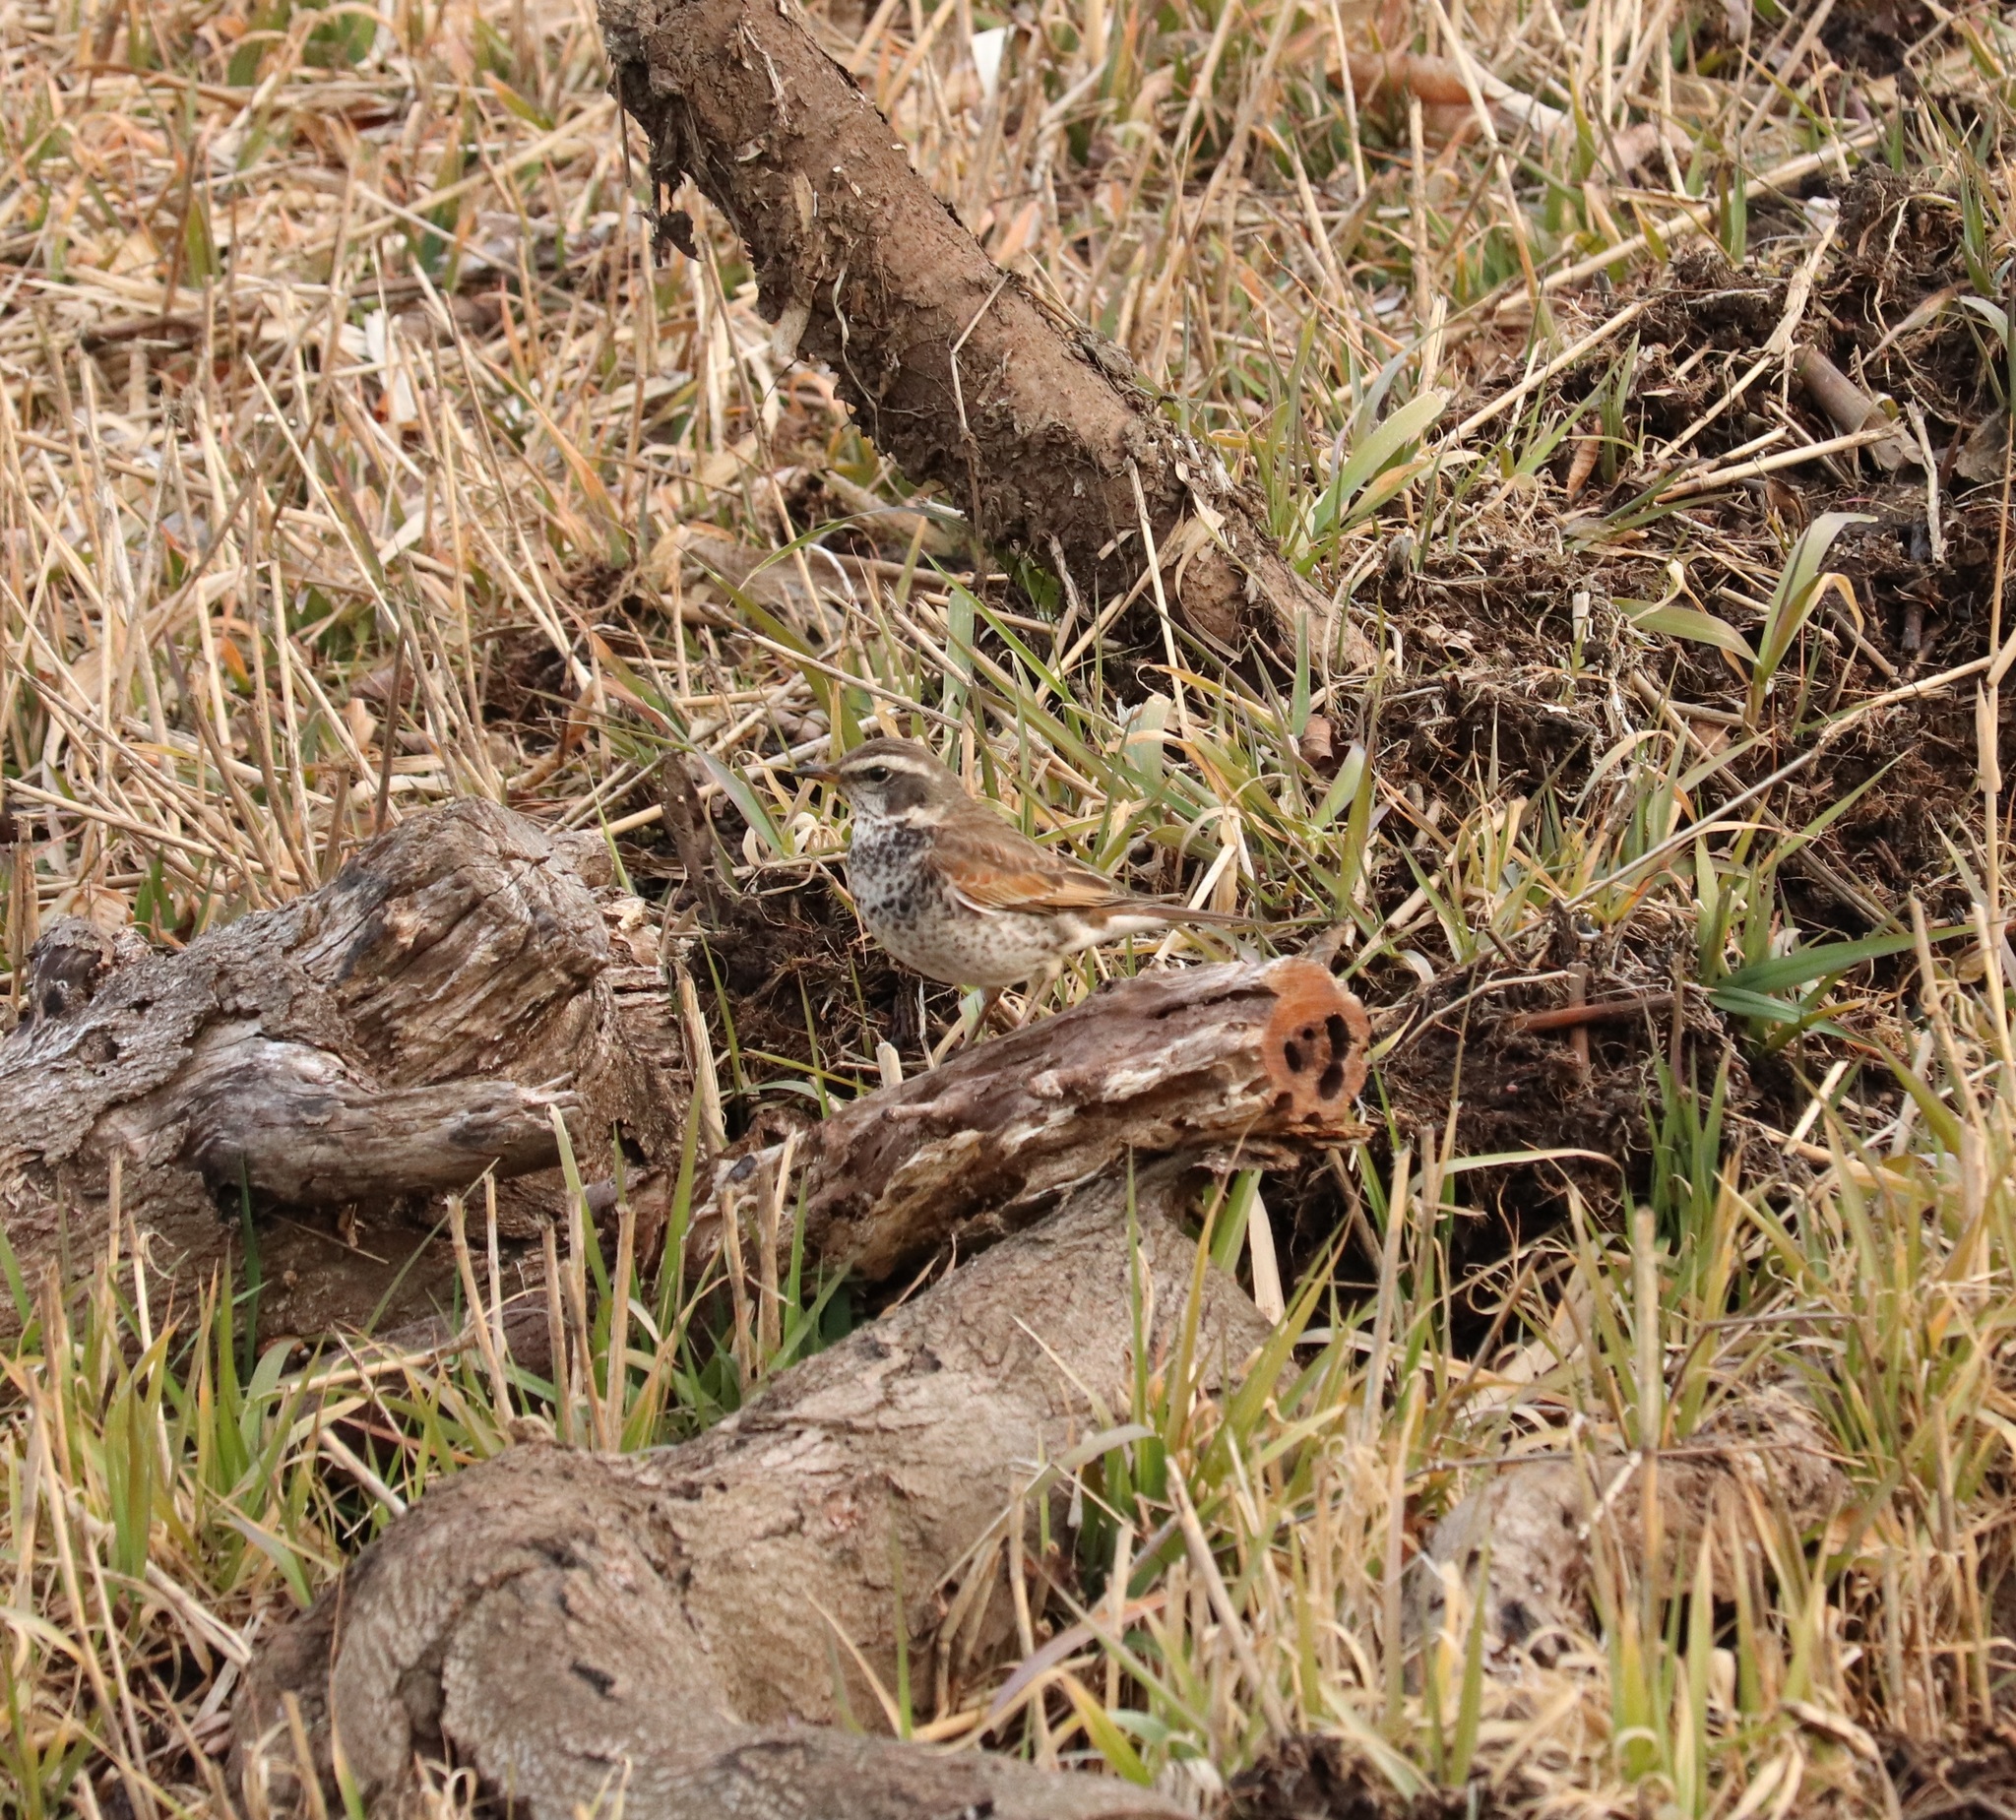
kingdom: Animalia
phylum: Chordata
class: Aves
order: Passeriformes
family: Turdidae
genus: Turdus
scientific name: Turdus eunomus
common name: Dusky thrush
